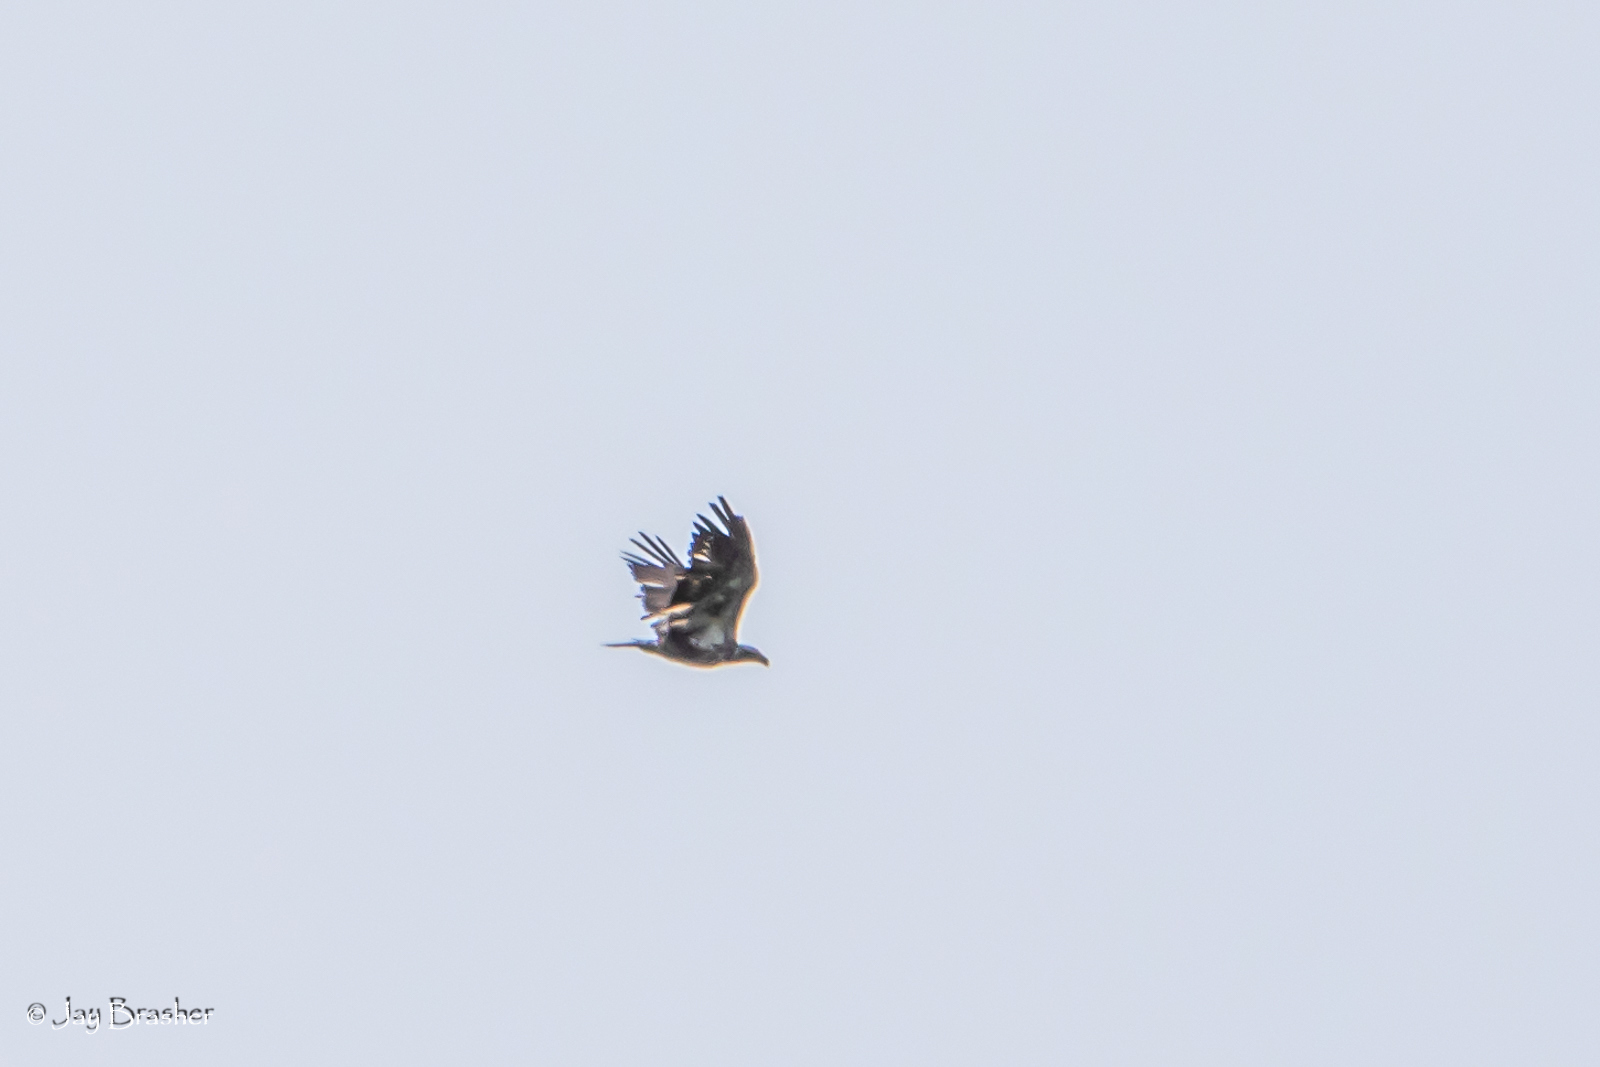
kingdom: Animalia
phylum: Chordata
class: Aves
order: Accipitriformes
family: Accipitridae
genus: Haliaeetus
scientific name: Haliaeetus leucocephalus
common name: Bald eagle
